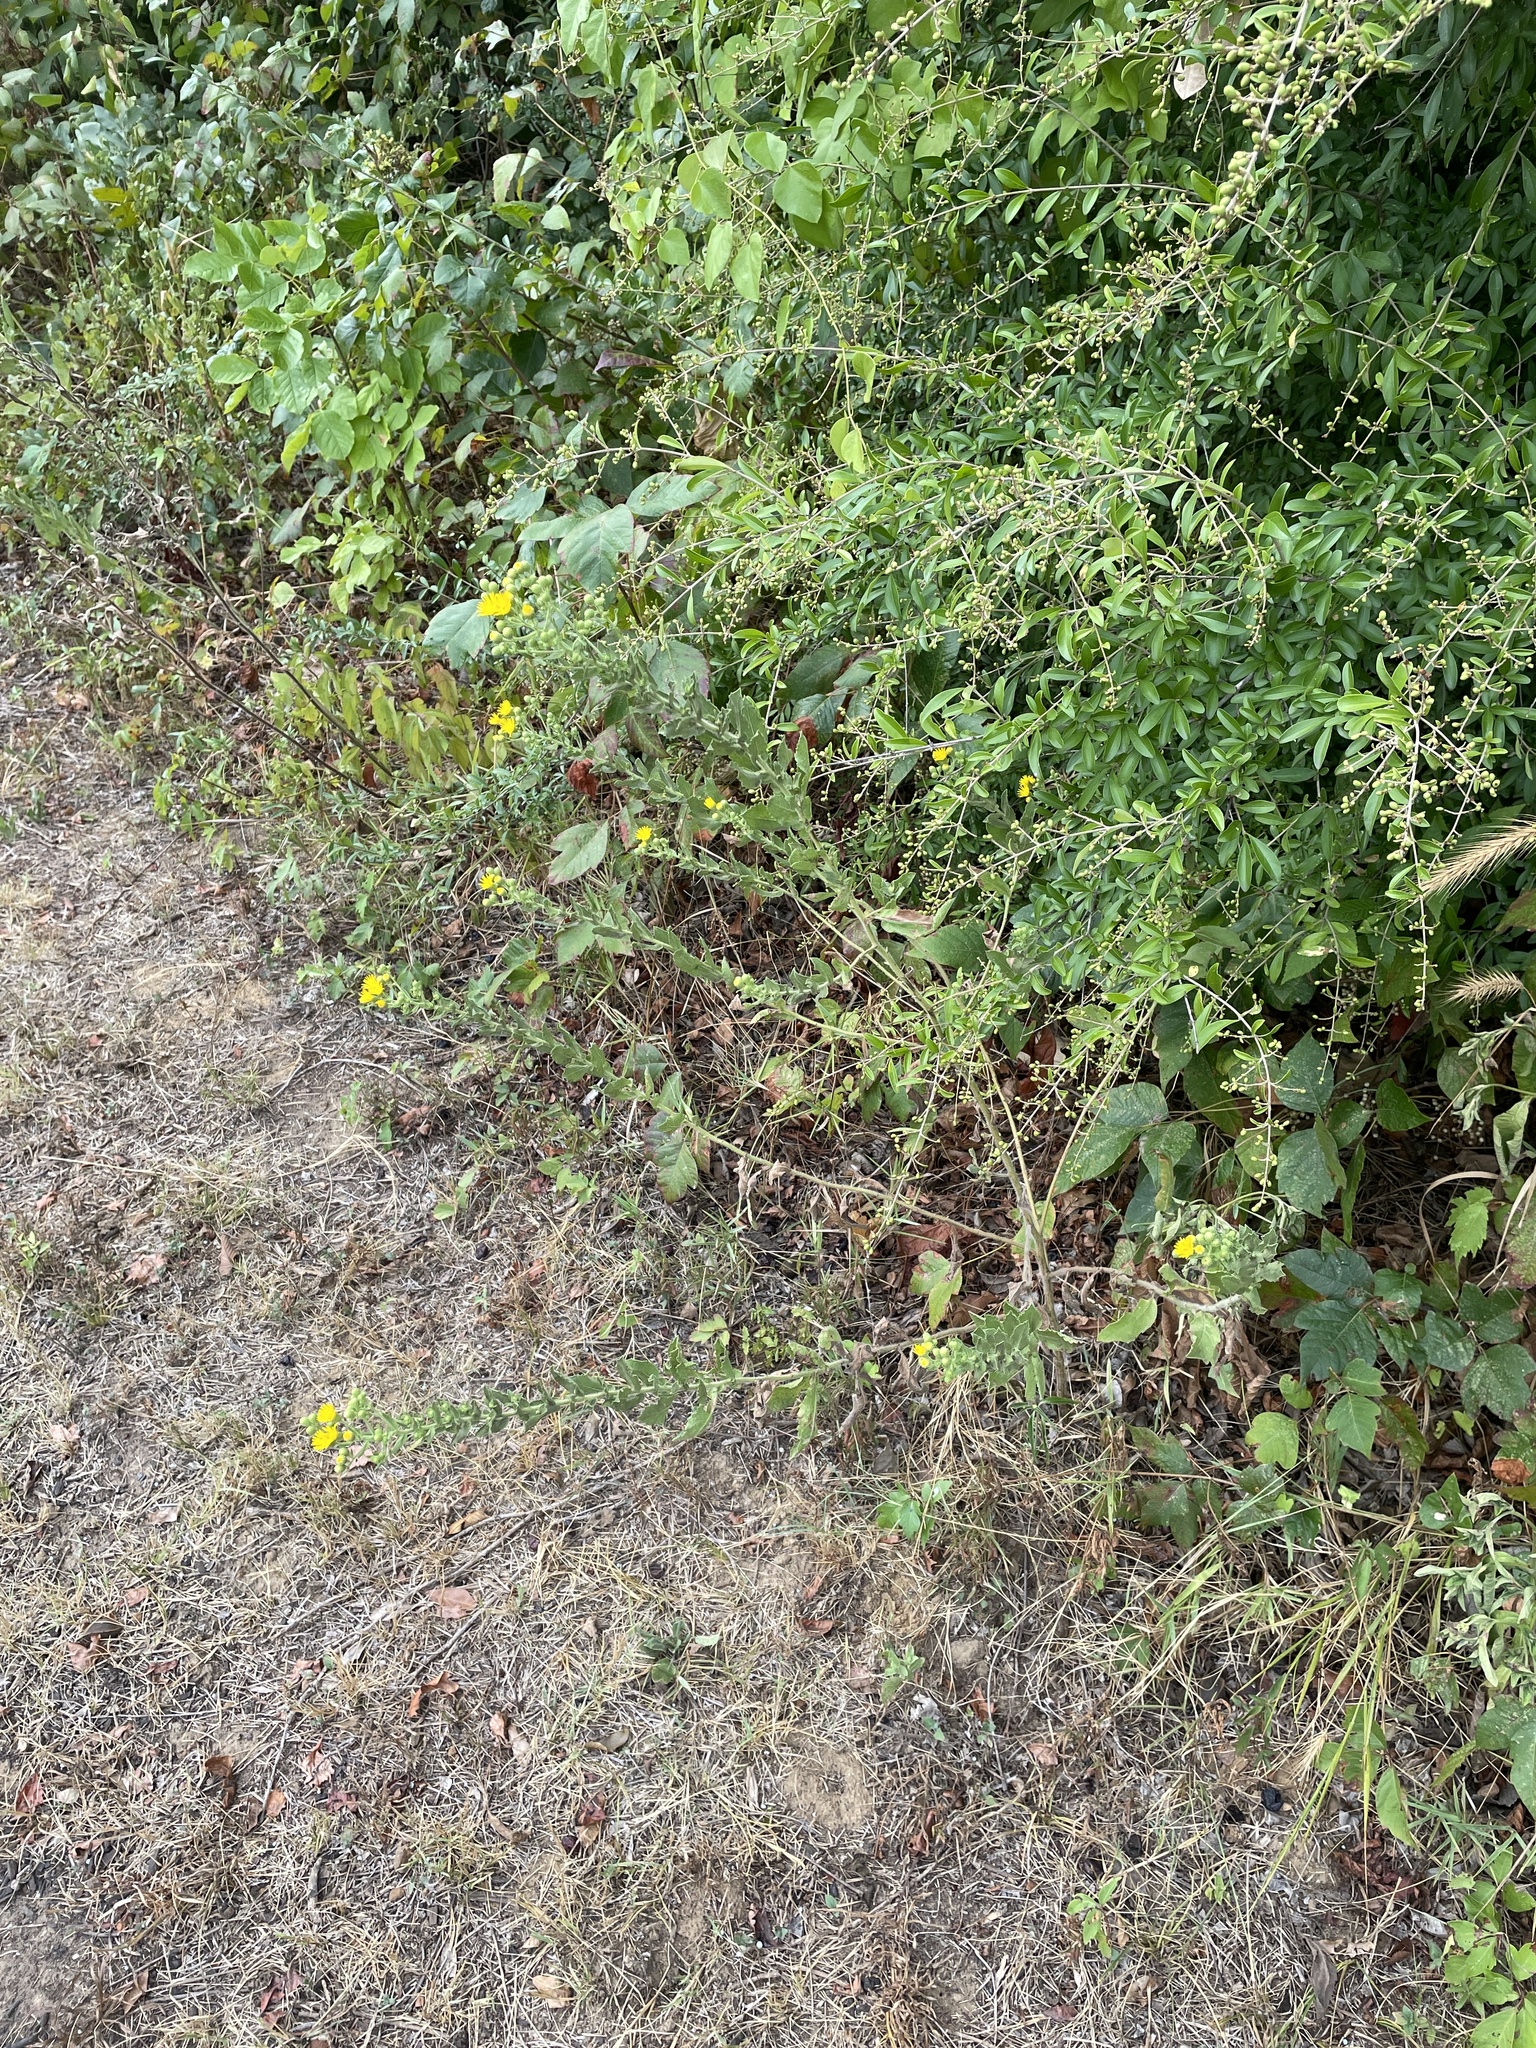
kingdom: Plantae
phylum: Tracheophyta
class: Magnoliopsida
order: Asterales
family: Asteraceae
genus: Heterotheca
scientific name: Heterotheca subaxillaris
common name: Camphorweed
